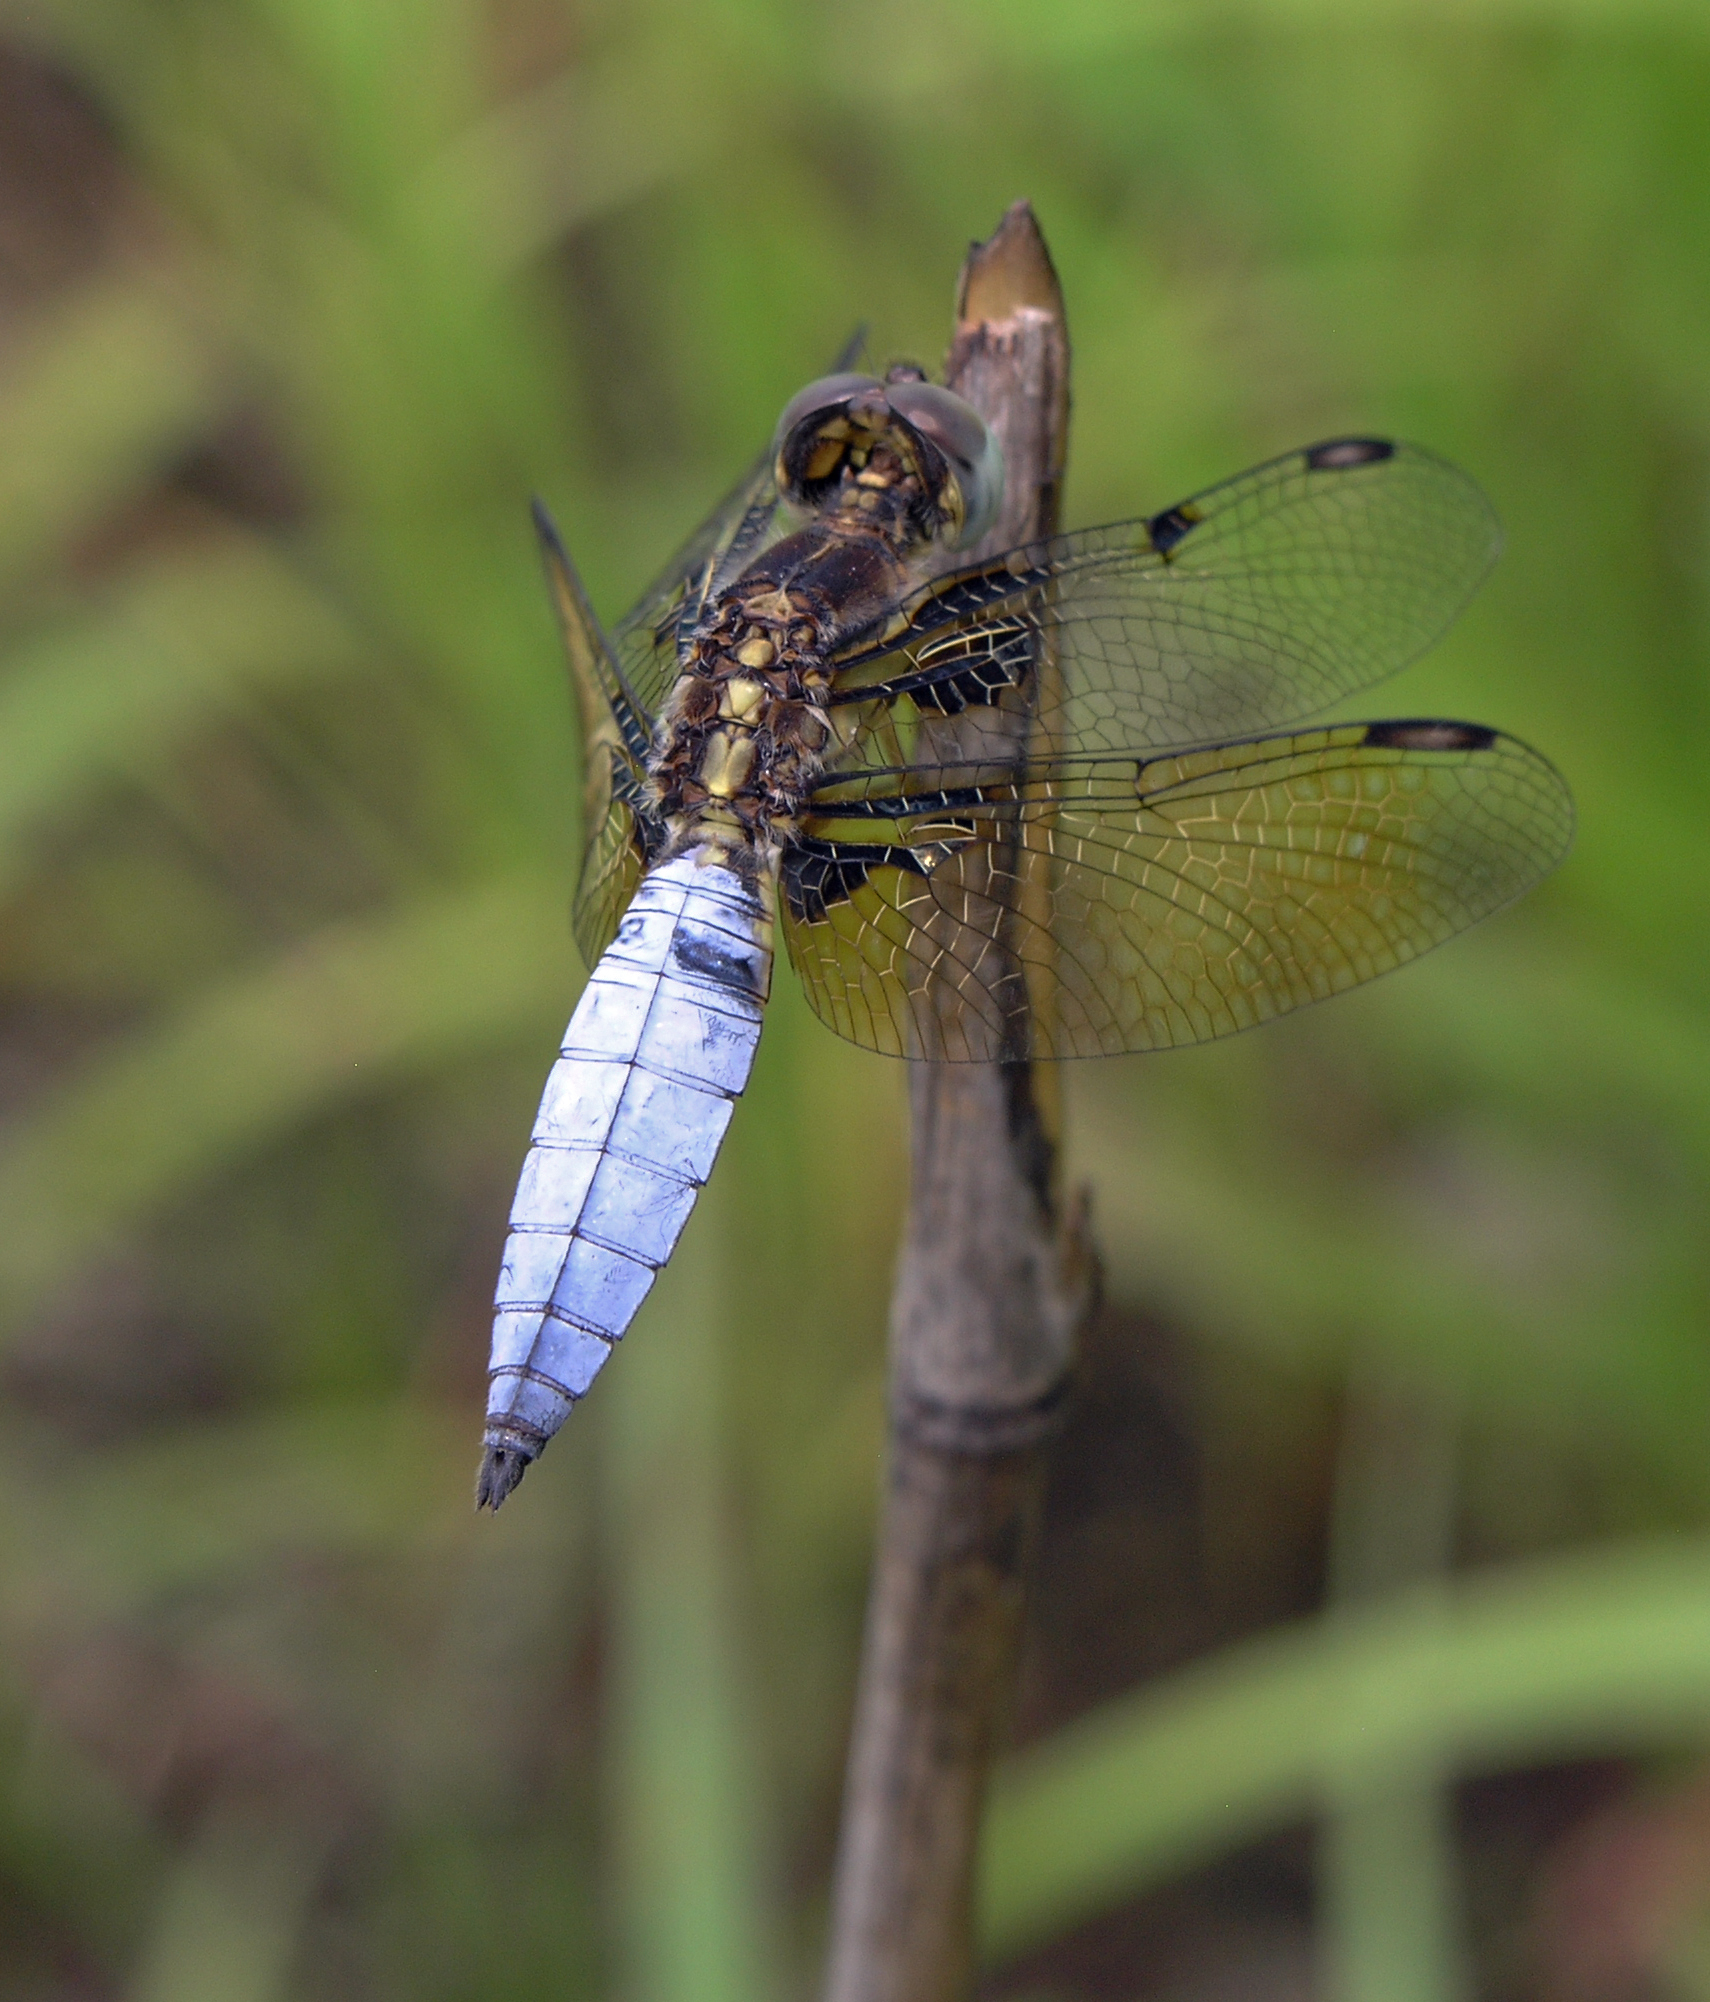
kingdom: Animalia
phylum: Arthropoda
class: Insecta
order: Odonata
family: Libellulidae
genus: Palpopleura
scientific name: Palpopleura sexmaculata
